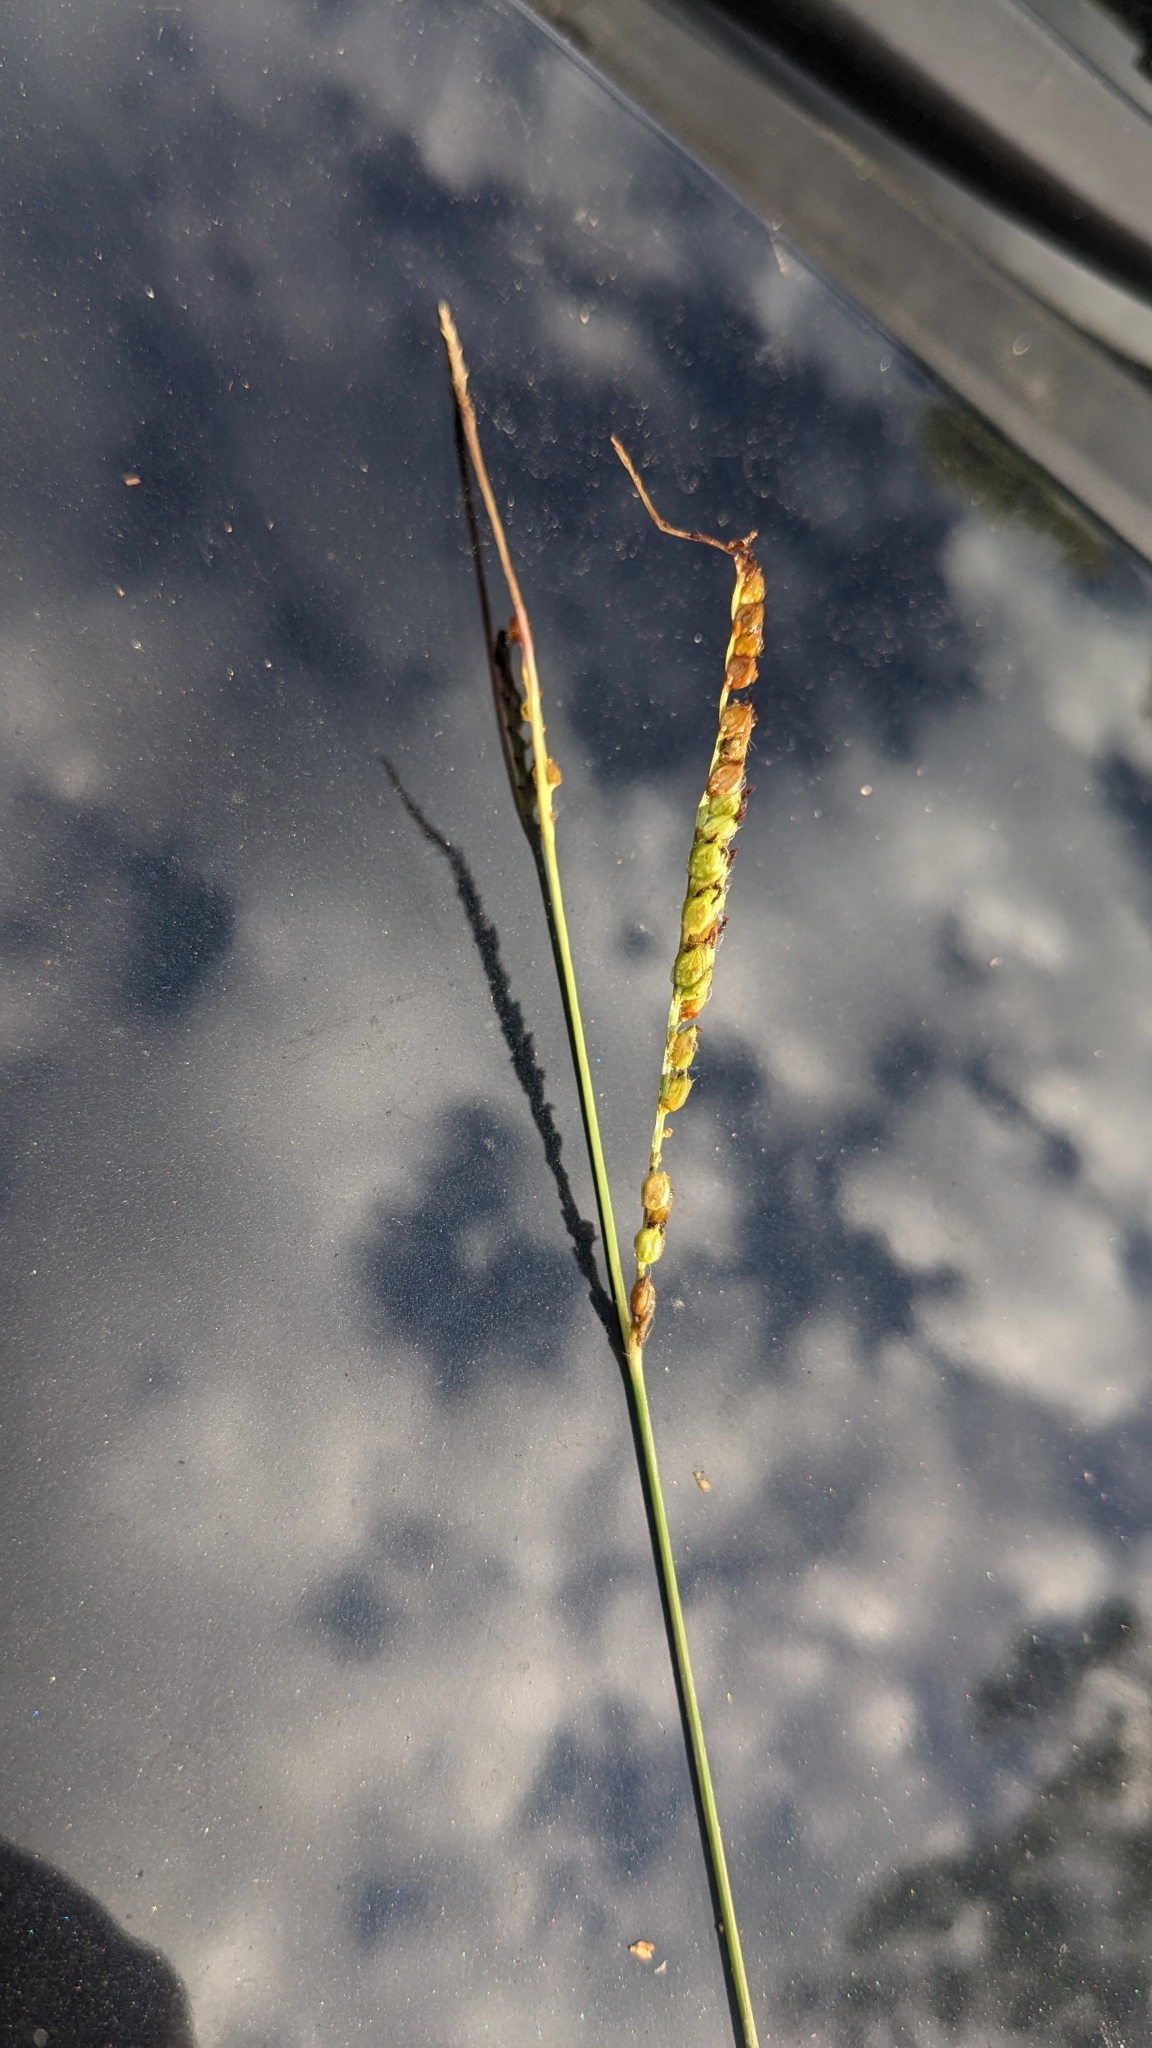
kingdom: Plantae
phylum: Tracheophyta
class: Liliopsida
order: Poales
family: Poaceae
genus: Paspalum
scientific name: Paspalum dilatatum
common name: Dallisgrass
